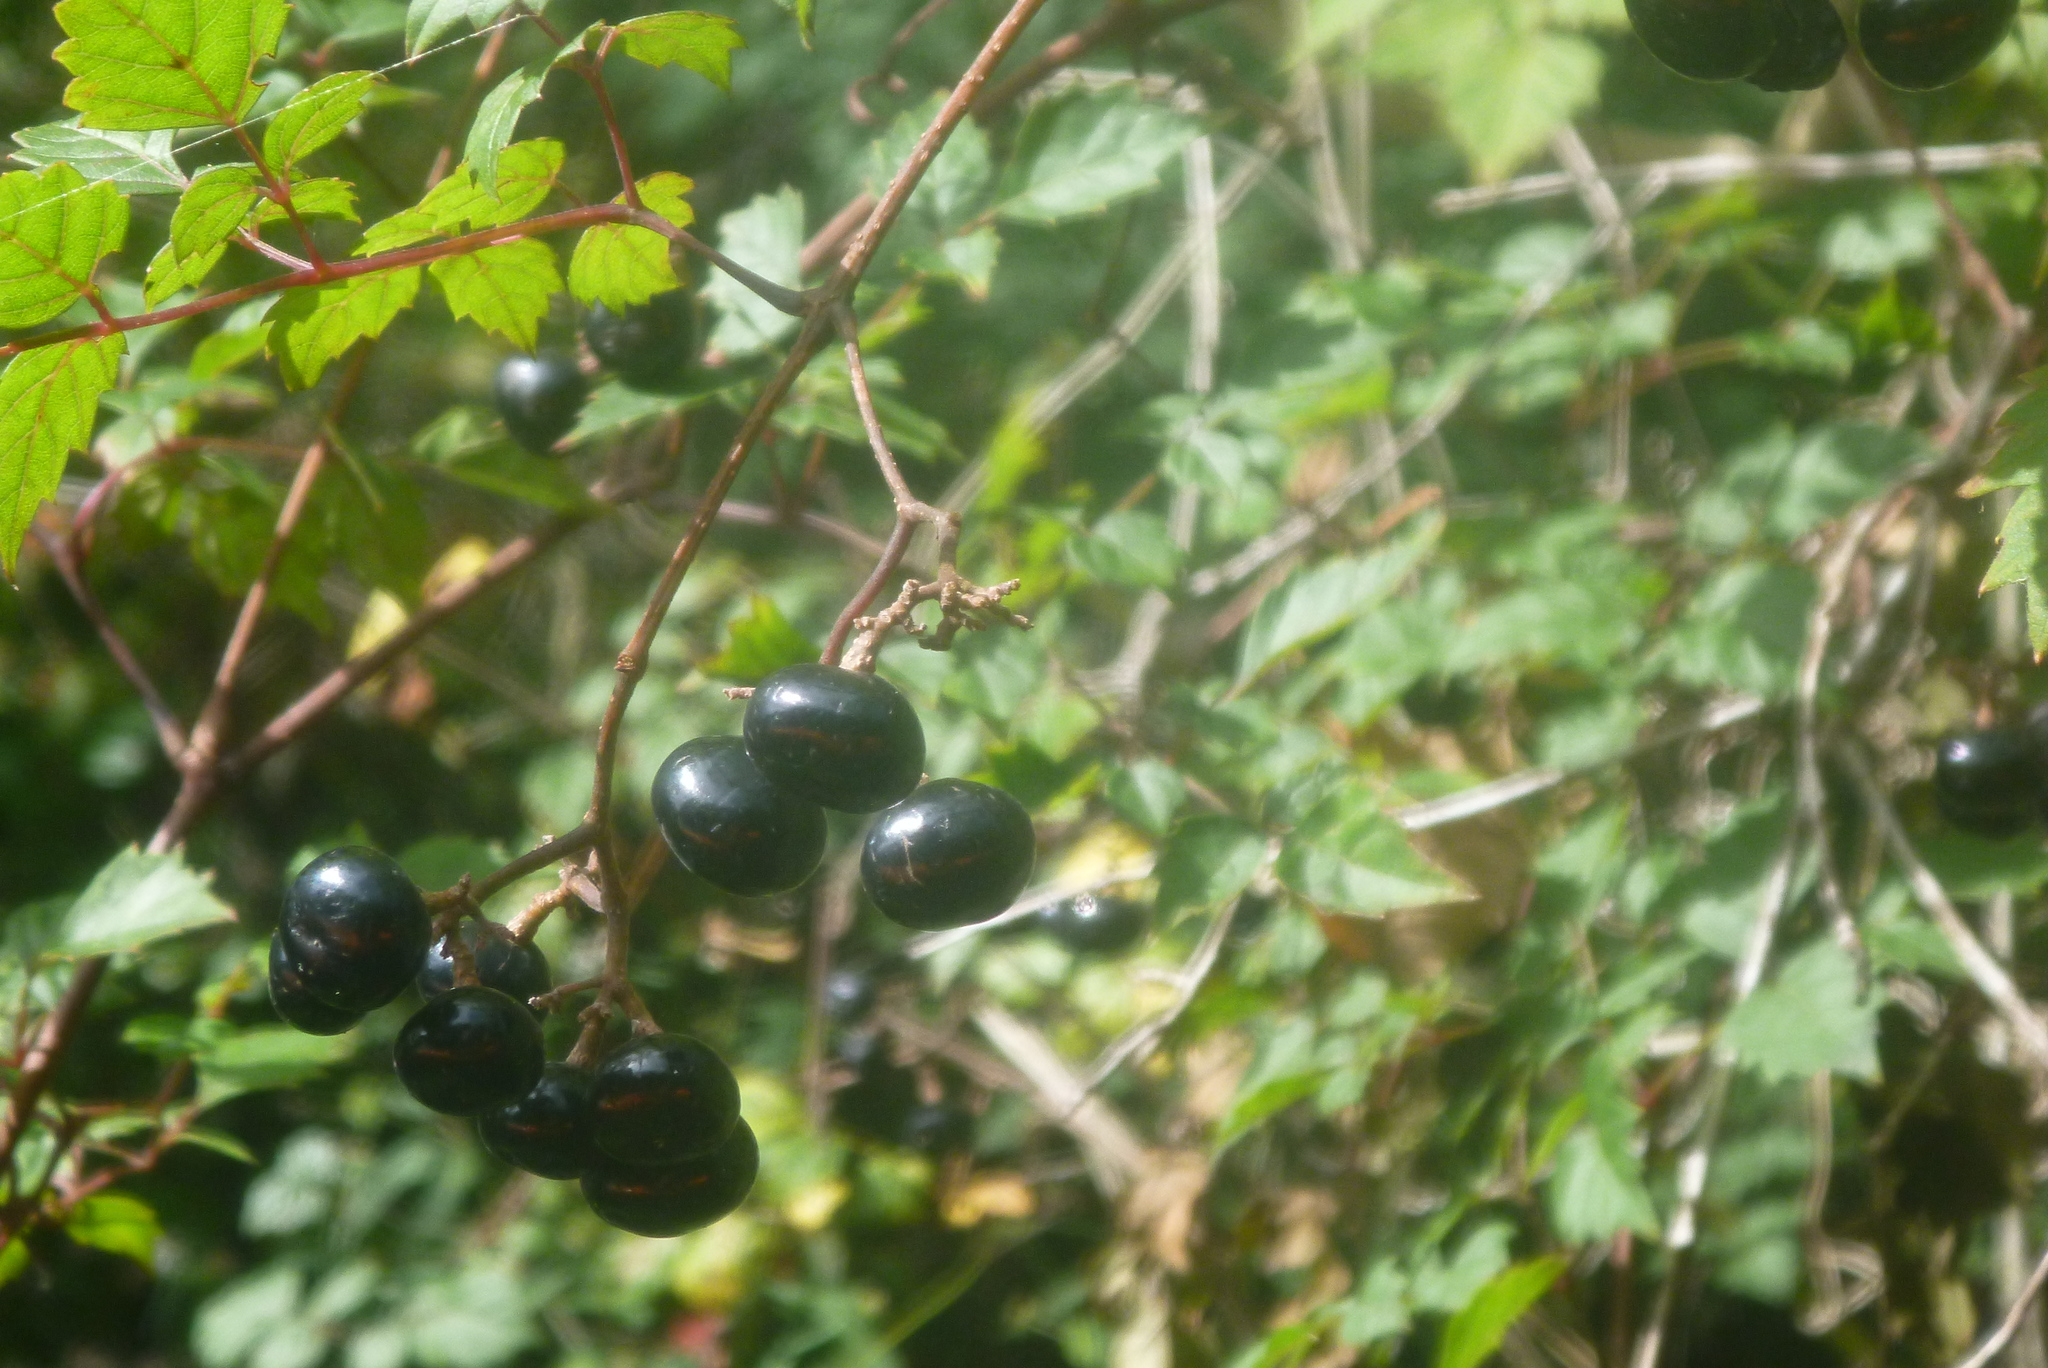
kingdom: Plantae
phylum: Tracheophyta
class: Magnoliopsida
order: Vitales
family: Vitaceae
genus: Nekemias
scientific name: Nekemias arborea
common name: Peppervine
